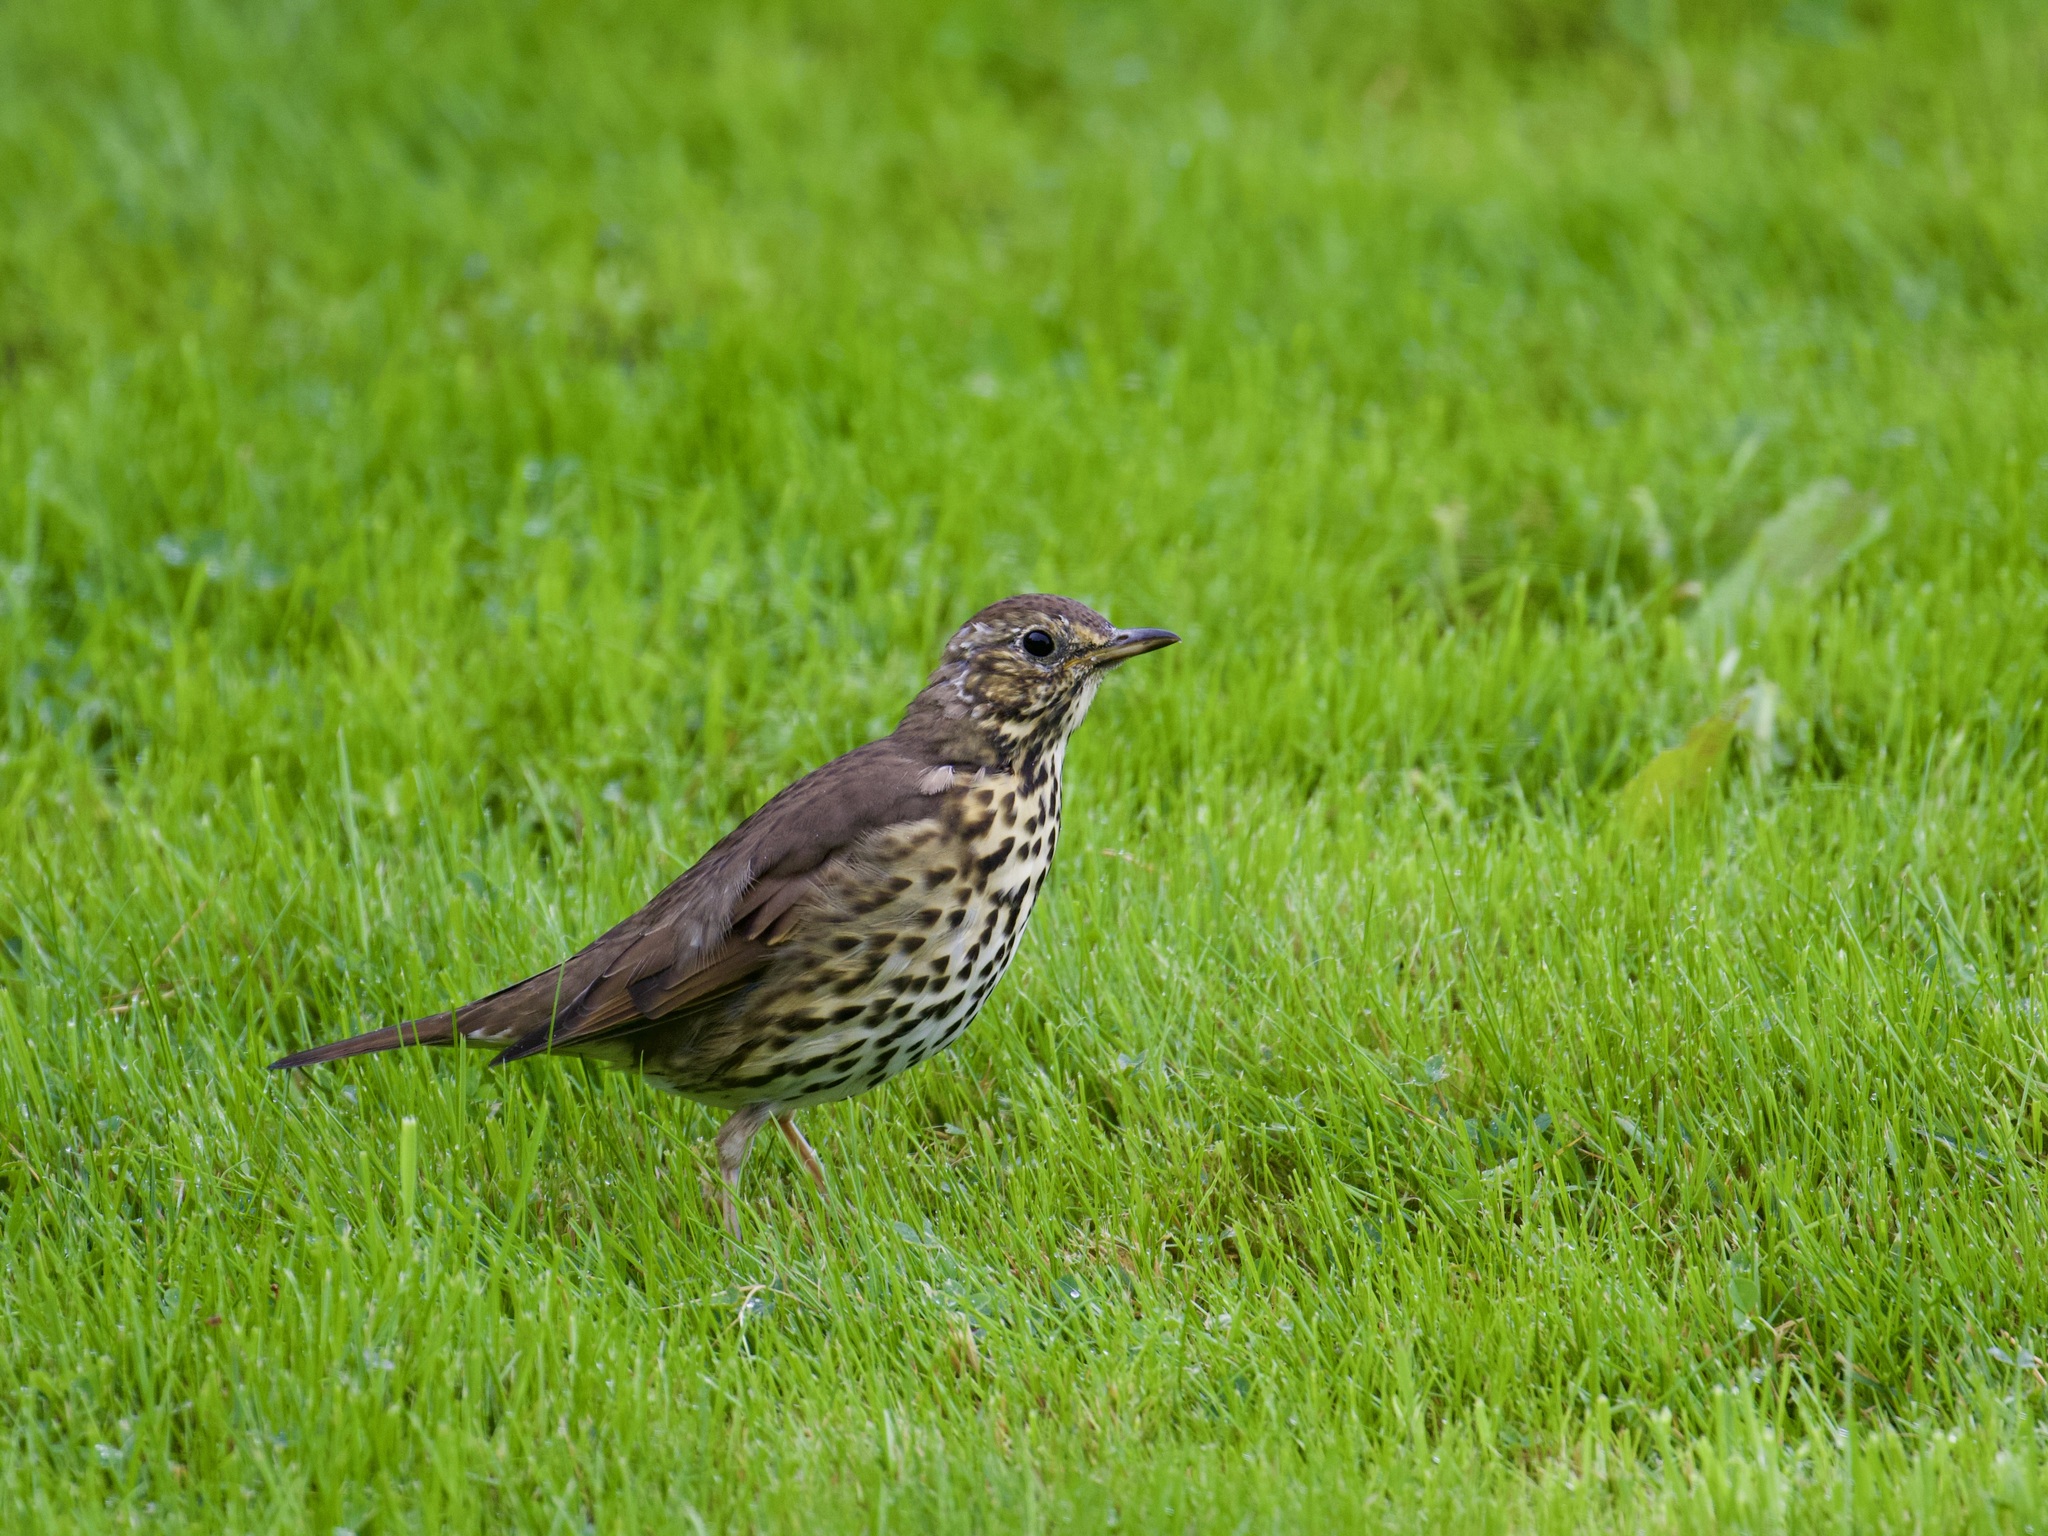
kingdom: Animalia
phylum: Chordata
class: Aves
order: Passeriformes
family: Turdidae
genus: Turdus
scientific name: Turdus philomelos
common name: Song thrush
